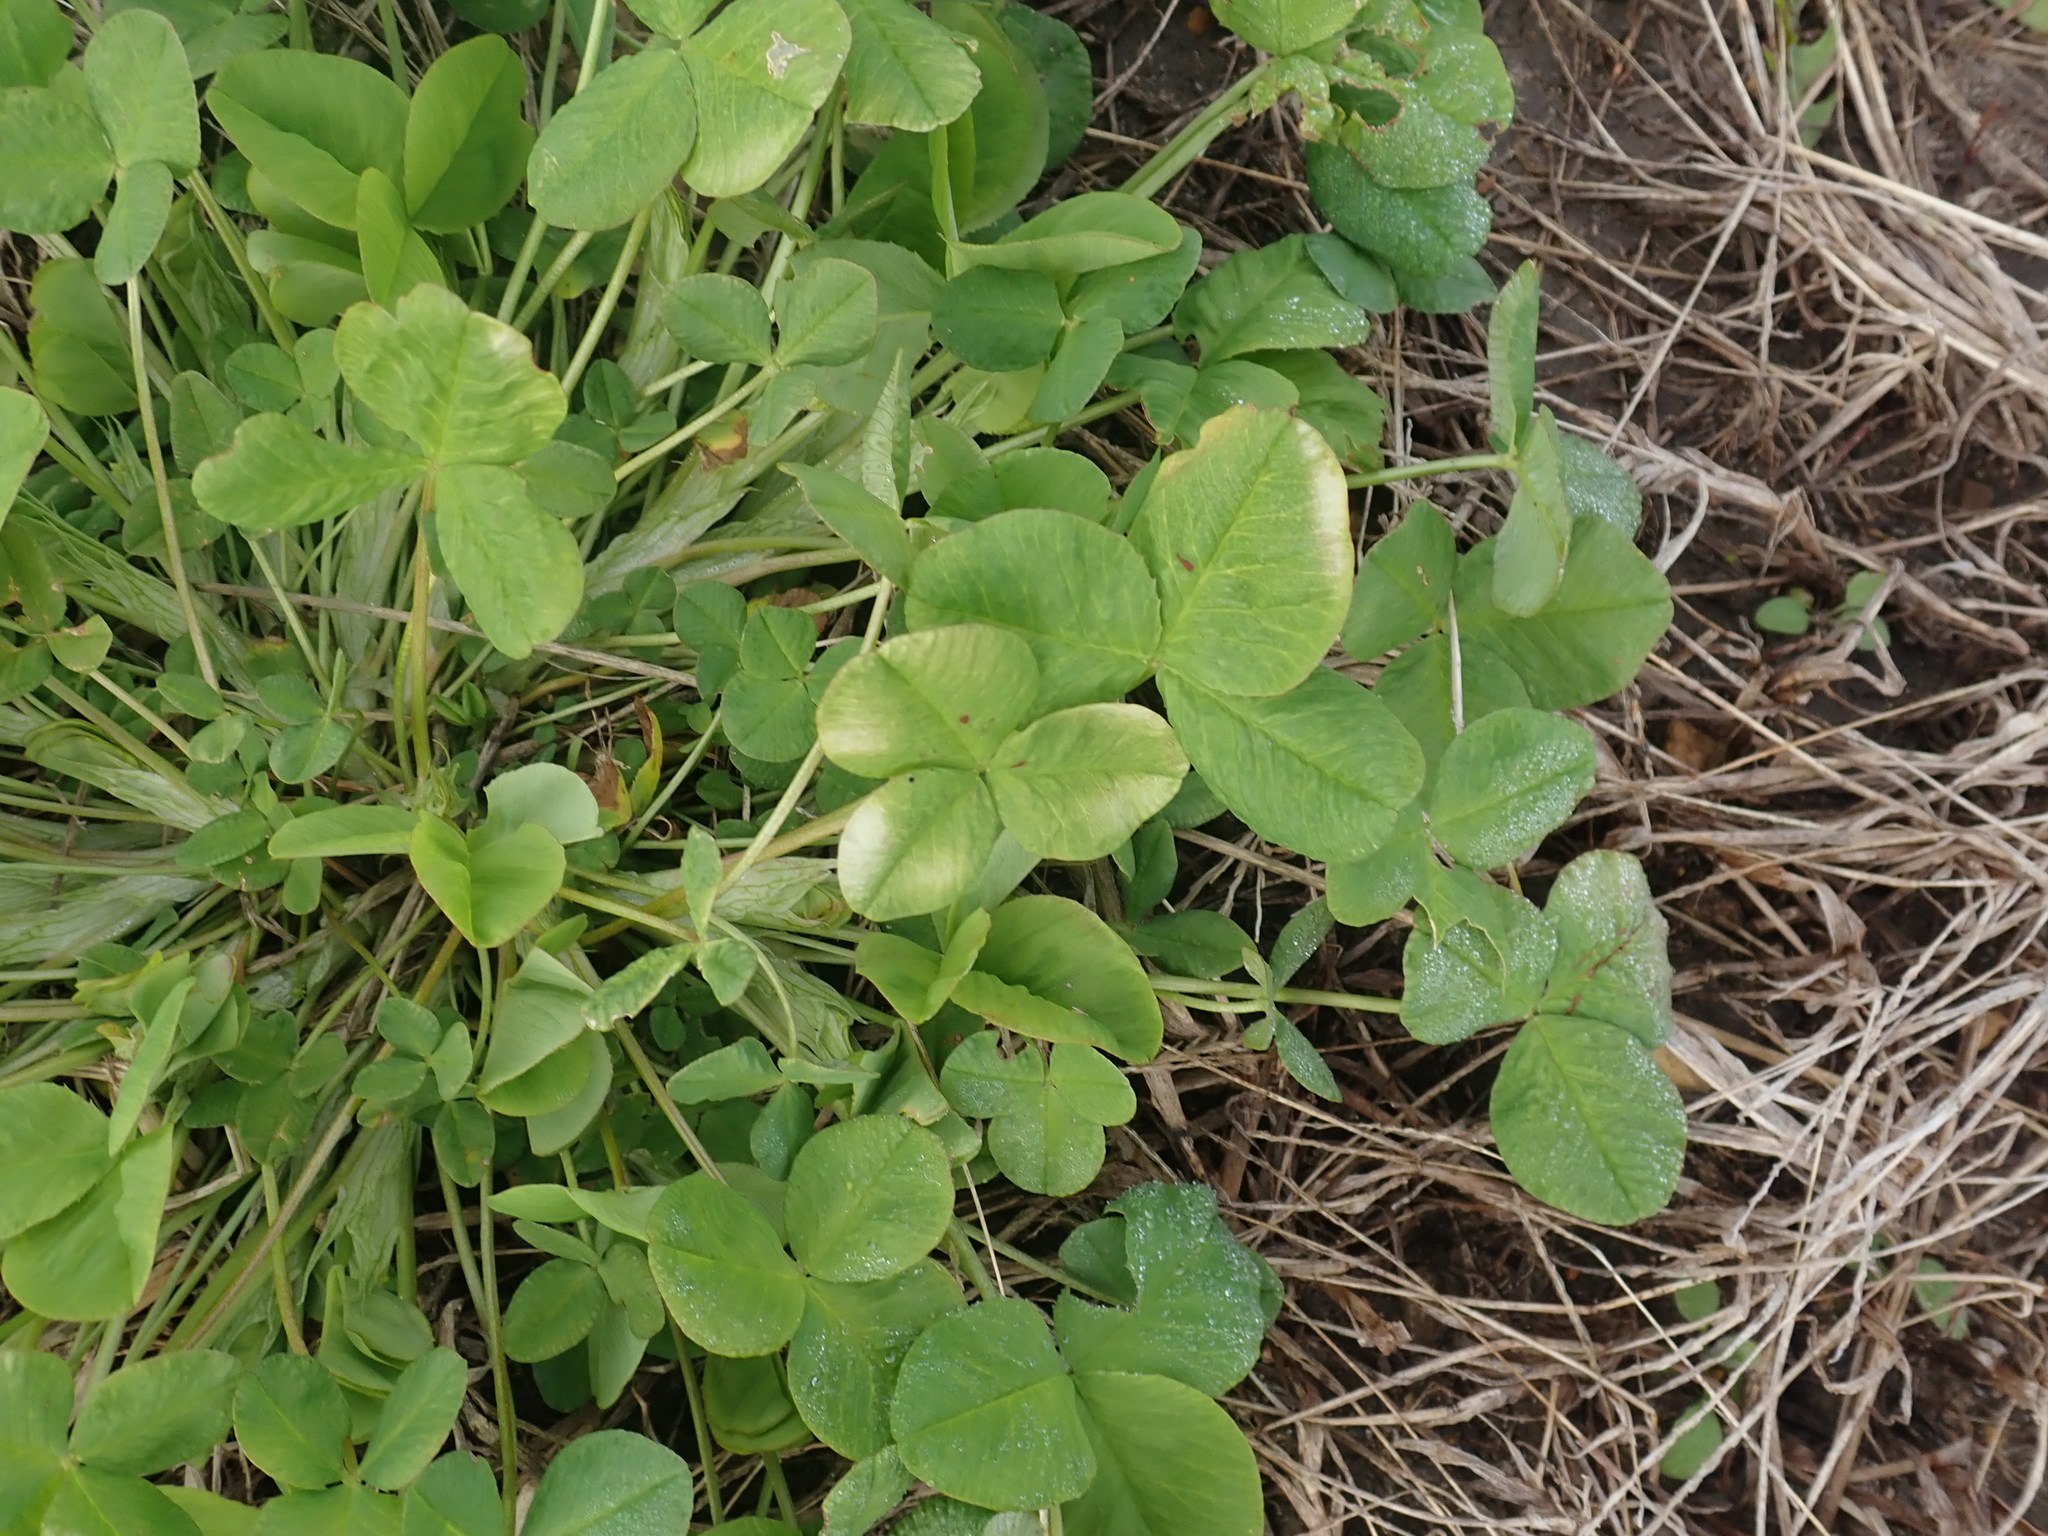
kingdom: Plantae
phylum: Tracheophyta
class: Magnoliopsida
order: Fabales
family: Fabaceae
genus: Trifolium
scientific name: Trifolium hybridum
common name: Alsike clover
